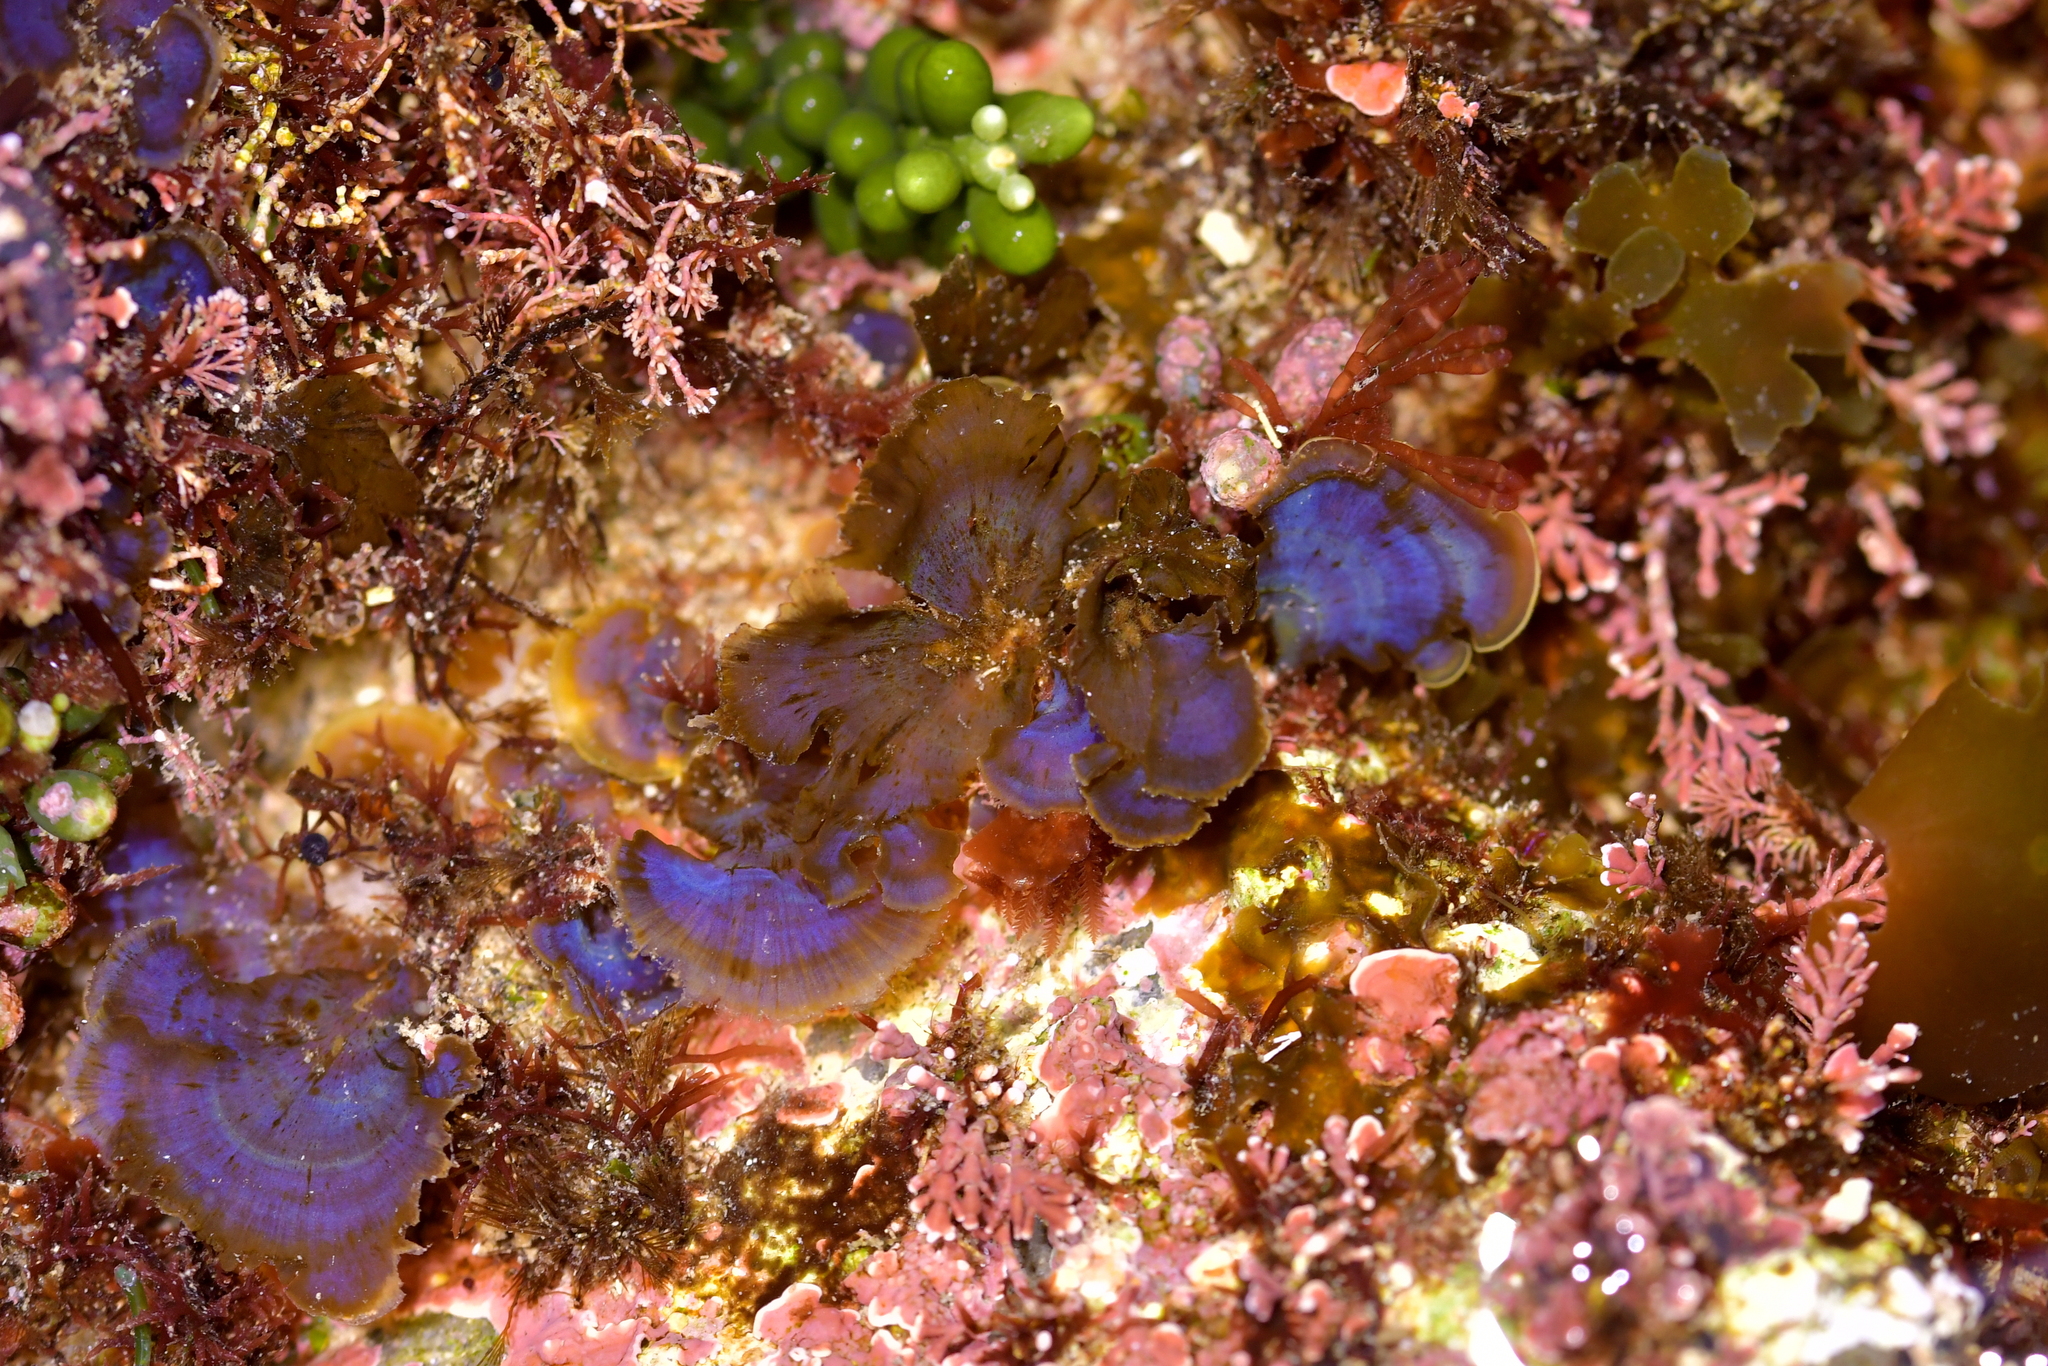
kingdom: Chromista
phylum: Ochrophyta
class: Phaeophyceae
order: Dictyotales
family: Dictyotaceae
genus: Distromium
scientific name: Distromium skottsbergii
